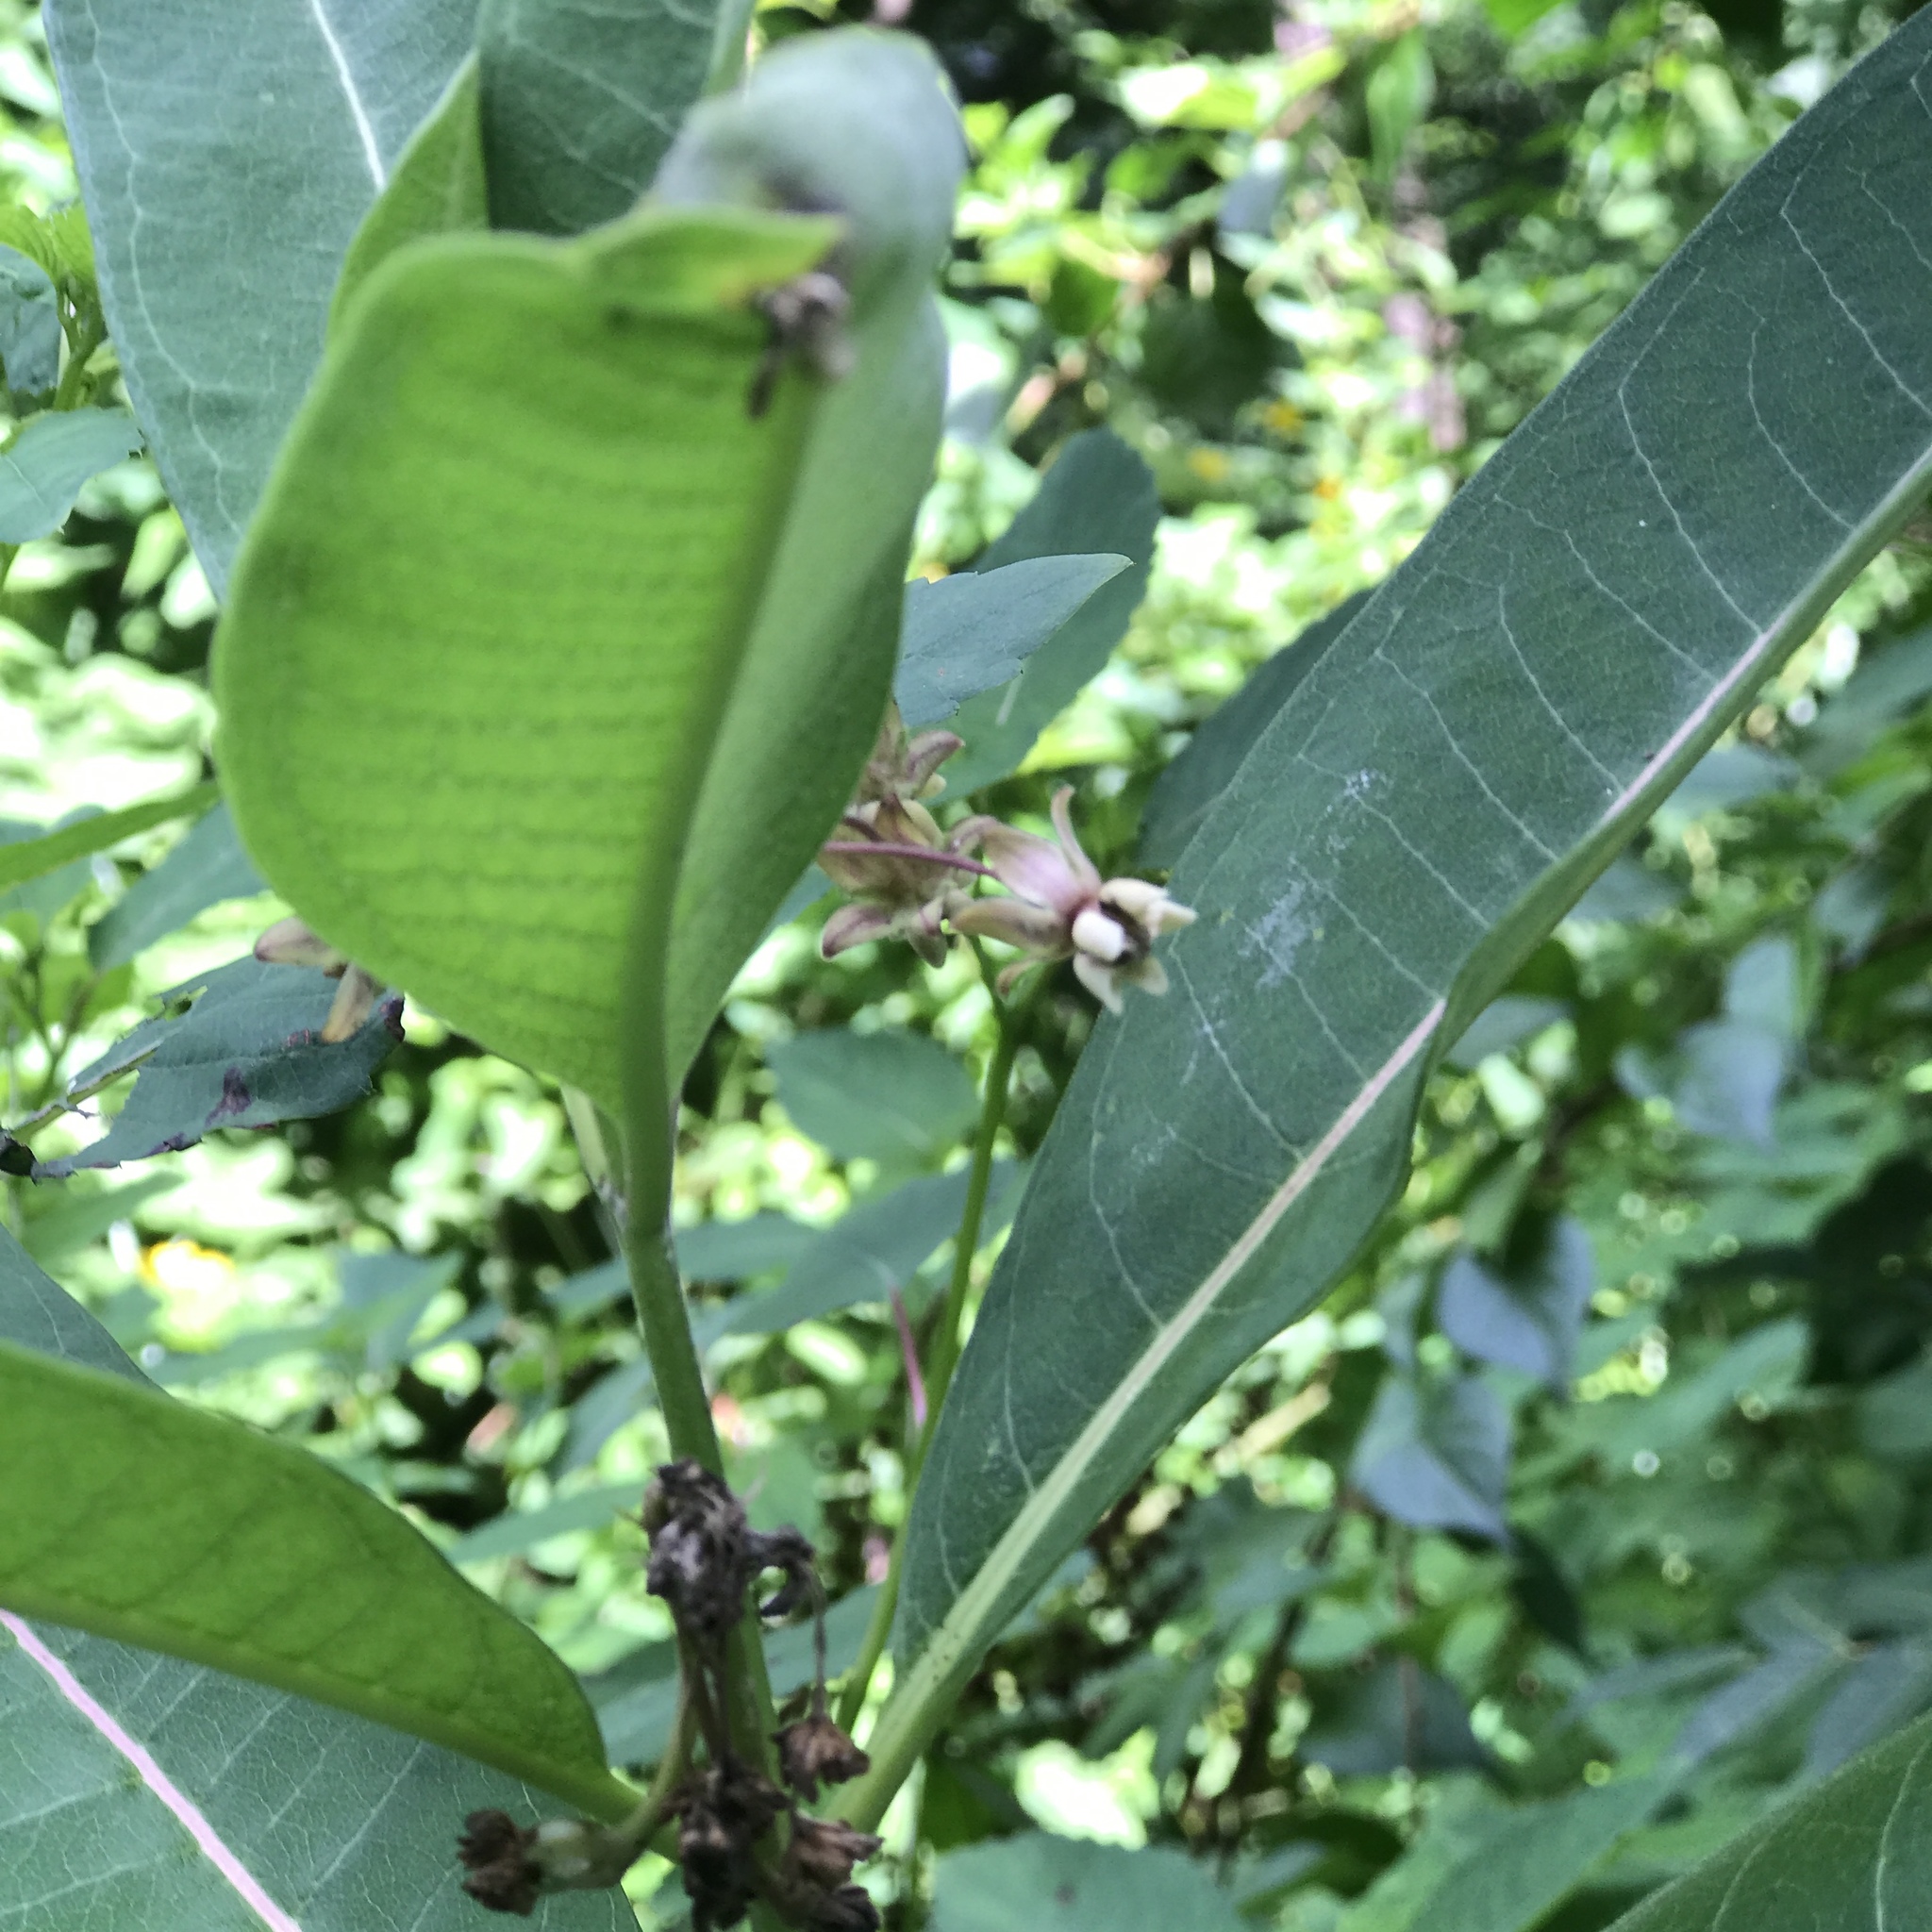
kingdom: Plantae
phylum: Tracheophyta
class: Magnoliopsida
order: Gentianales
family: Apocynaceae
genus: Asclepias
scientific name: Asclepias syriaca
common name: Common milkweed
